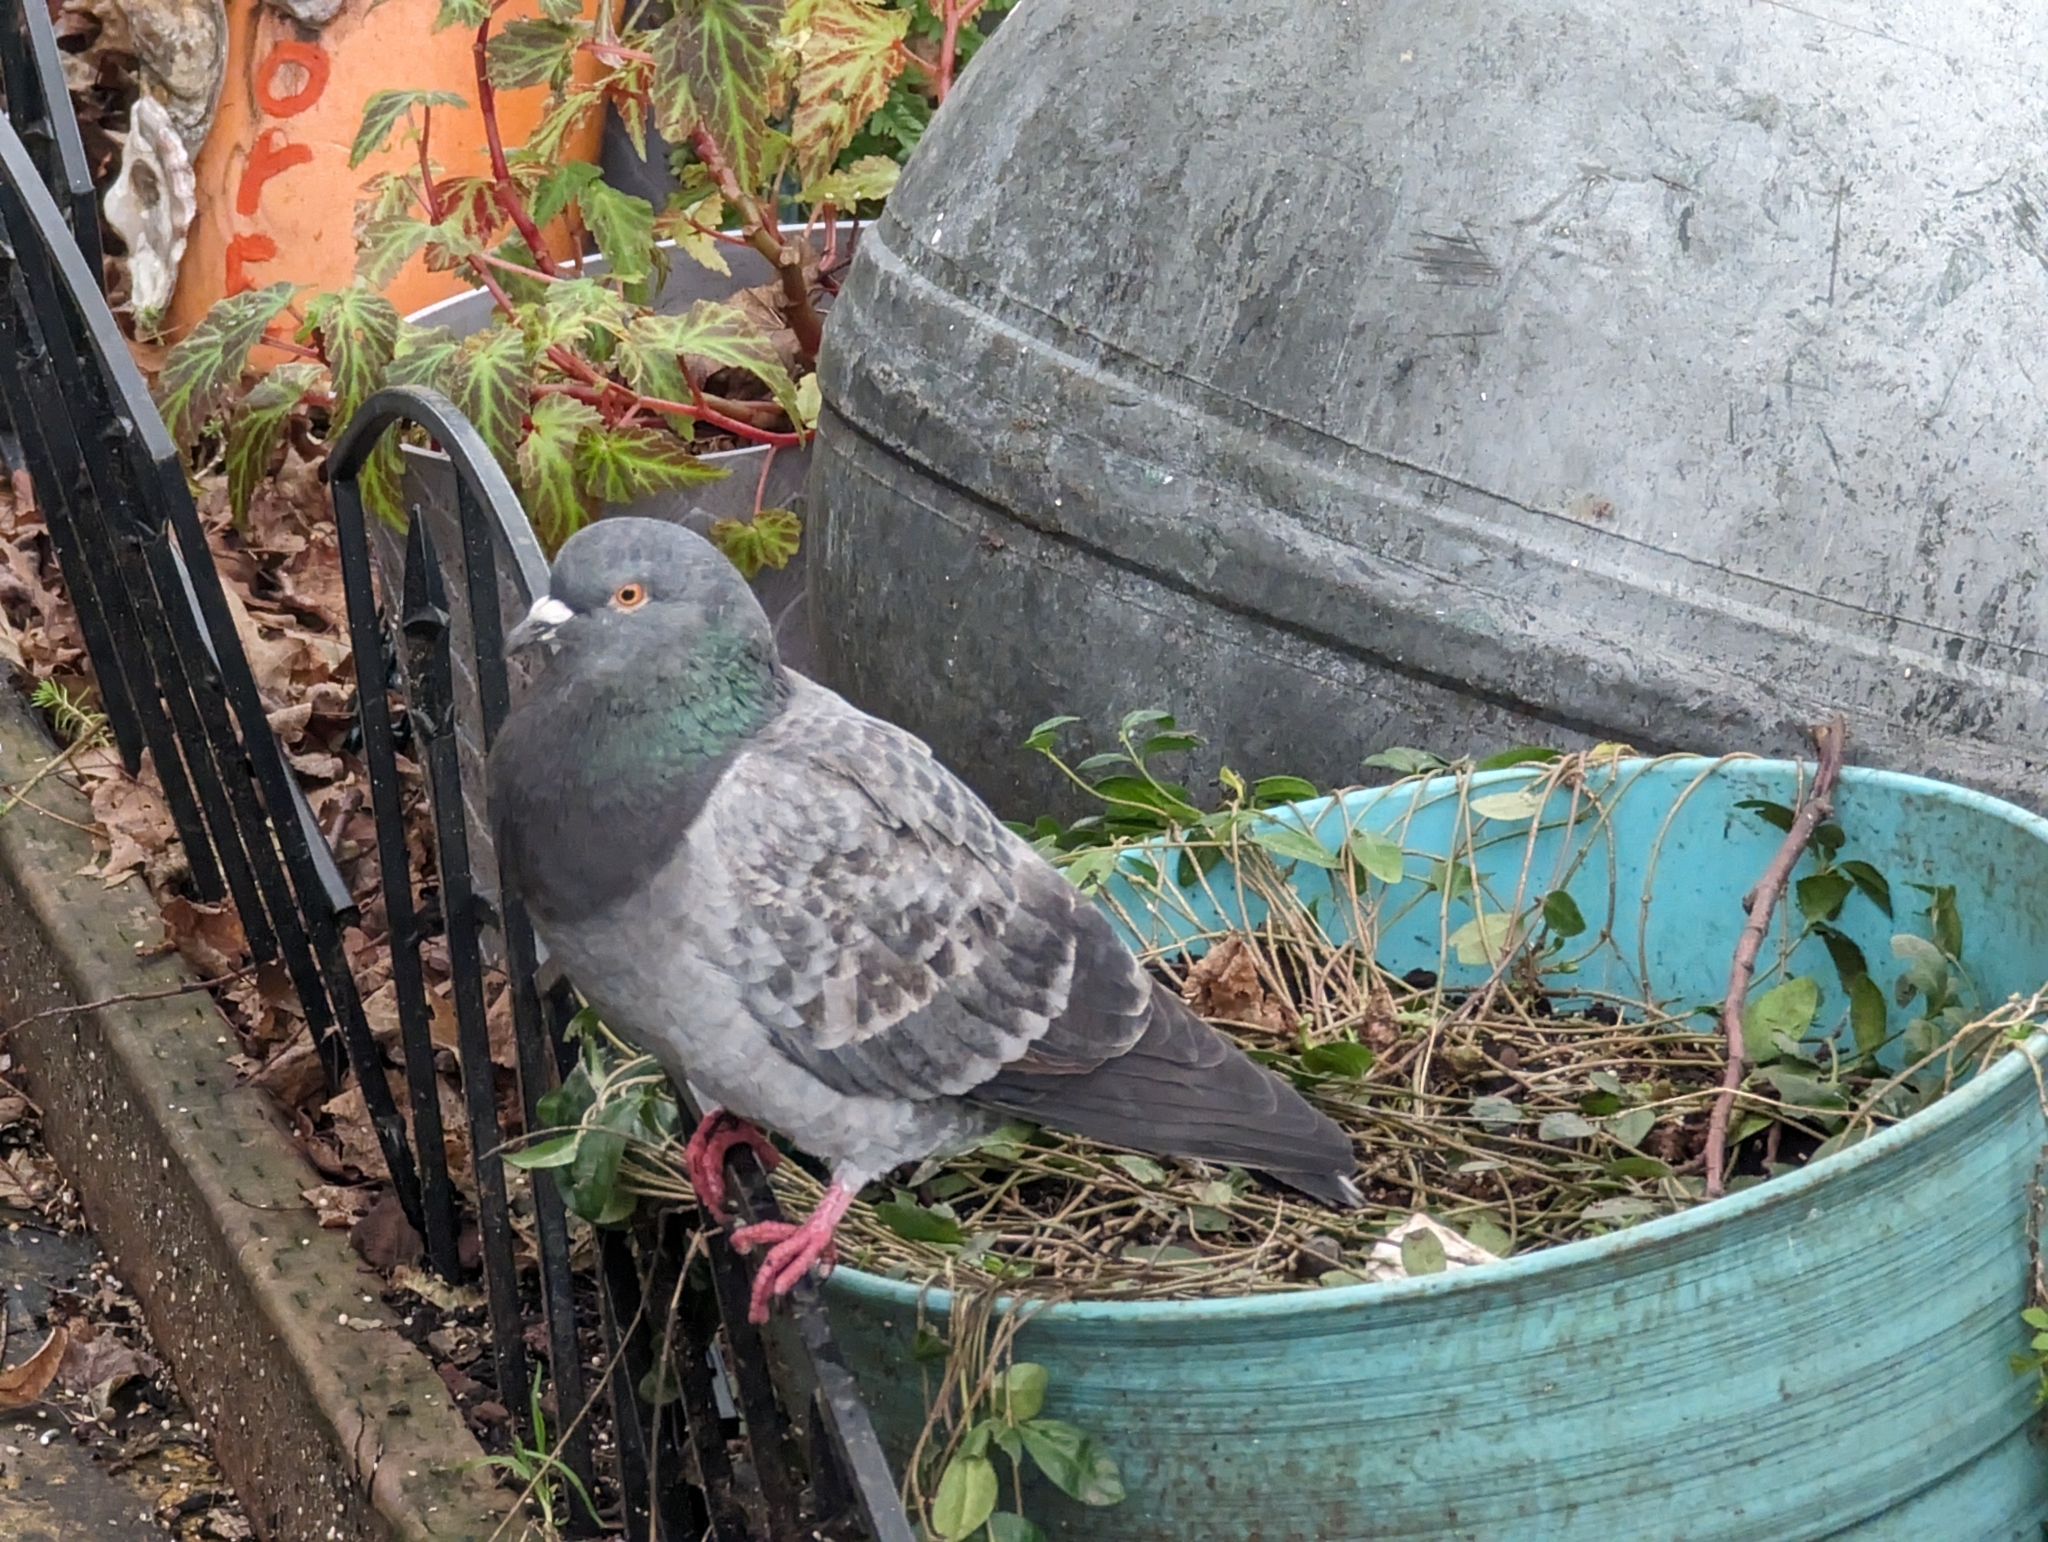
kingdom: Animalia
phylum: Chordata
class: Aves
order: Columbiformes
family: Columbidae
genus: Columba
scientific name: Columba livia
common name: Rock pigeon
